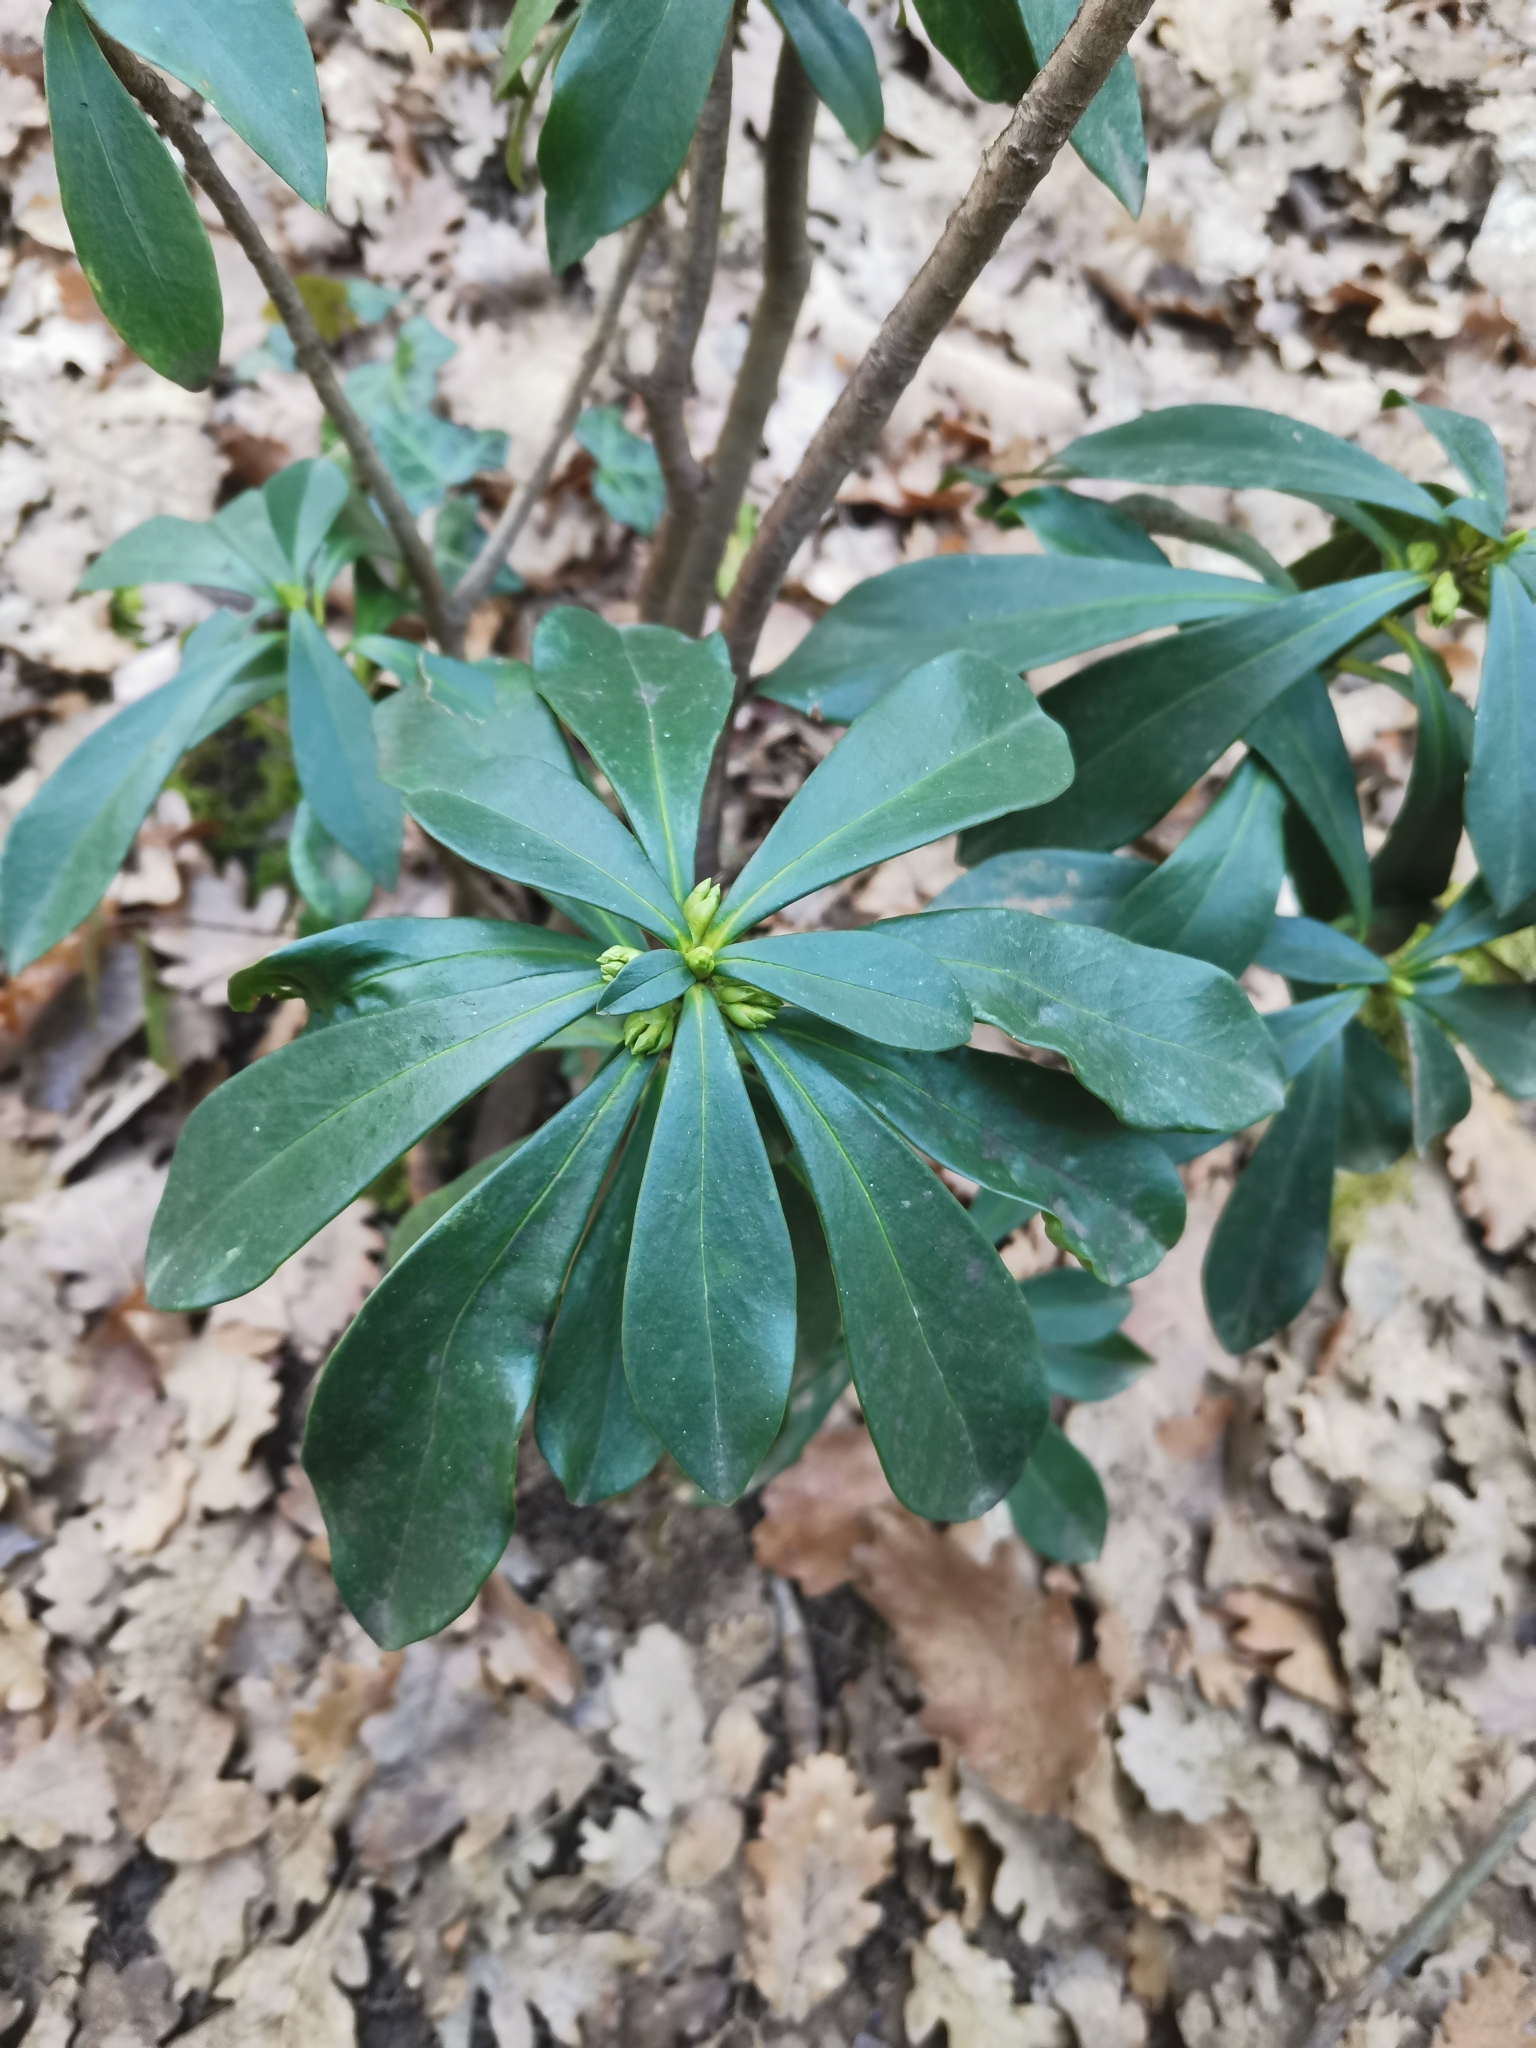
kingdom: Plantae
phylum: Tracheophyta
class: Magnoliopsida
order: Malvales
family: Thymelaeaceae
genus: Daphne
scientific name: Daphne laureola
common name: Spurge-laurel
